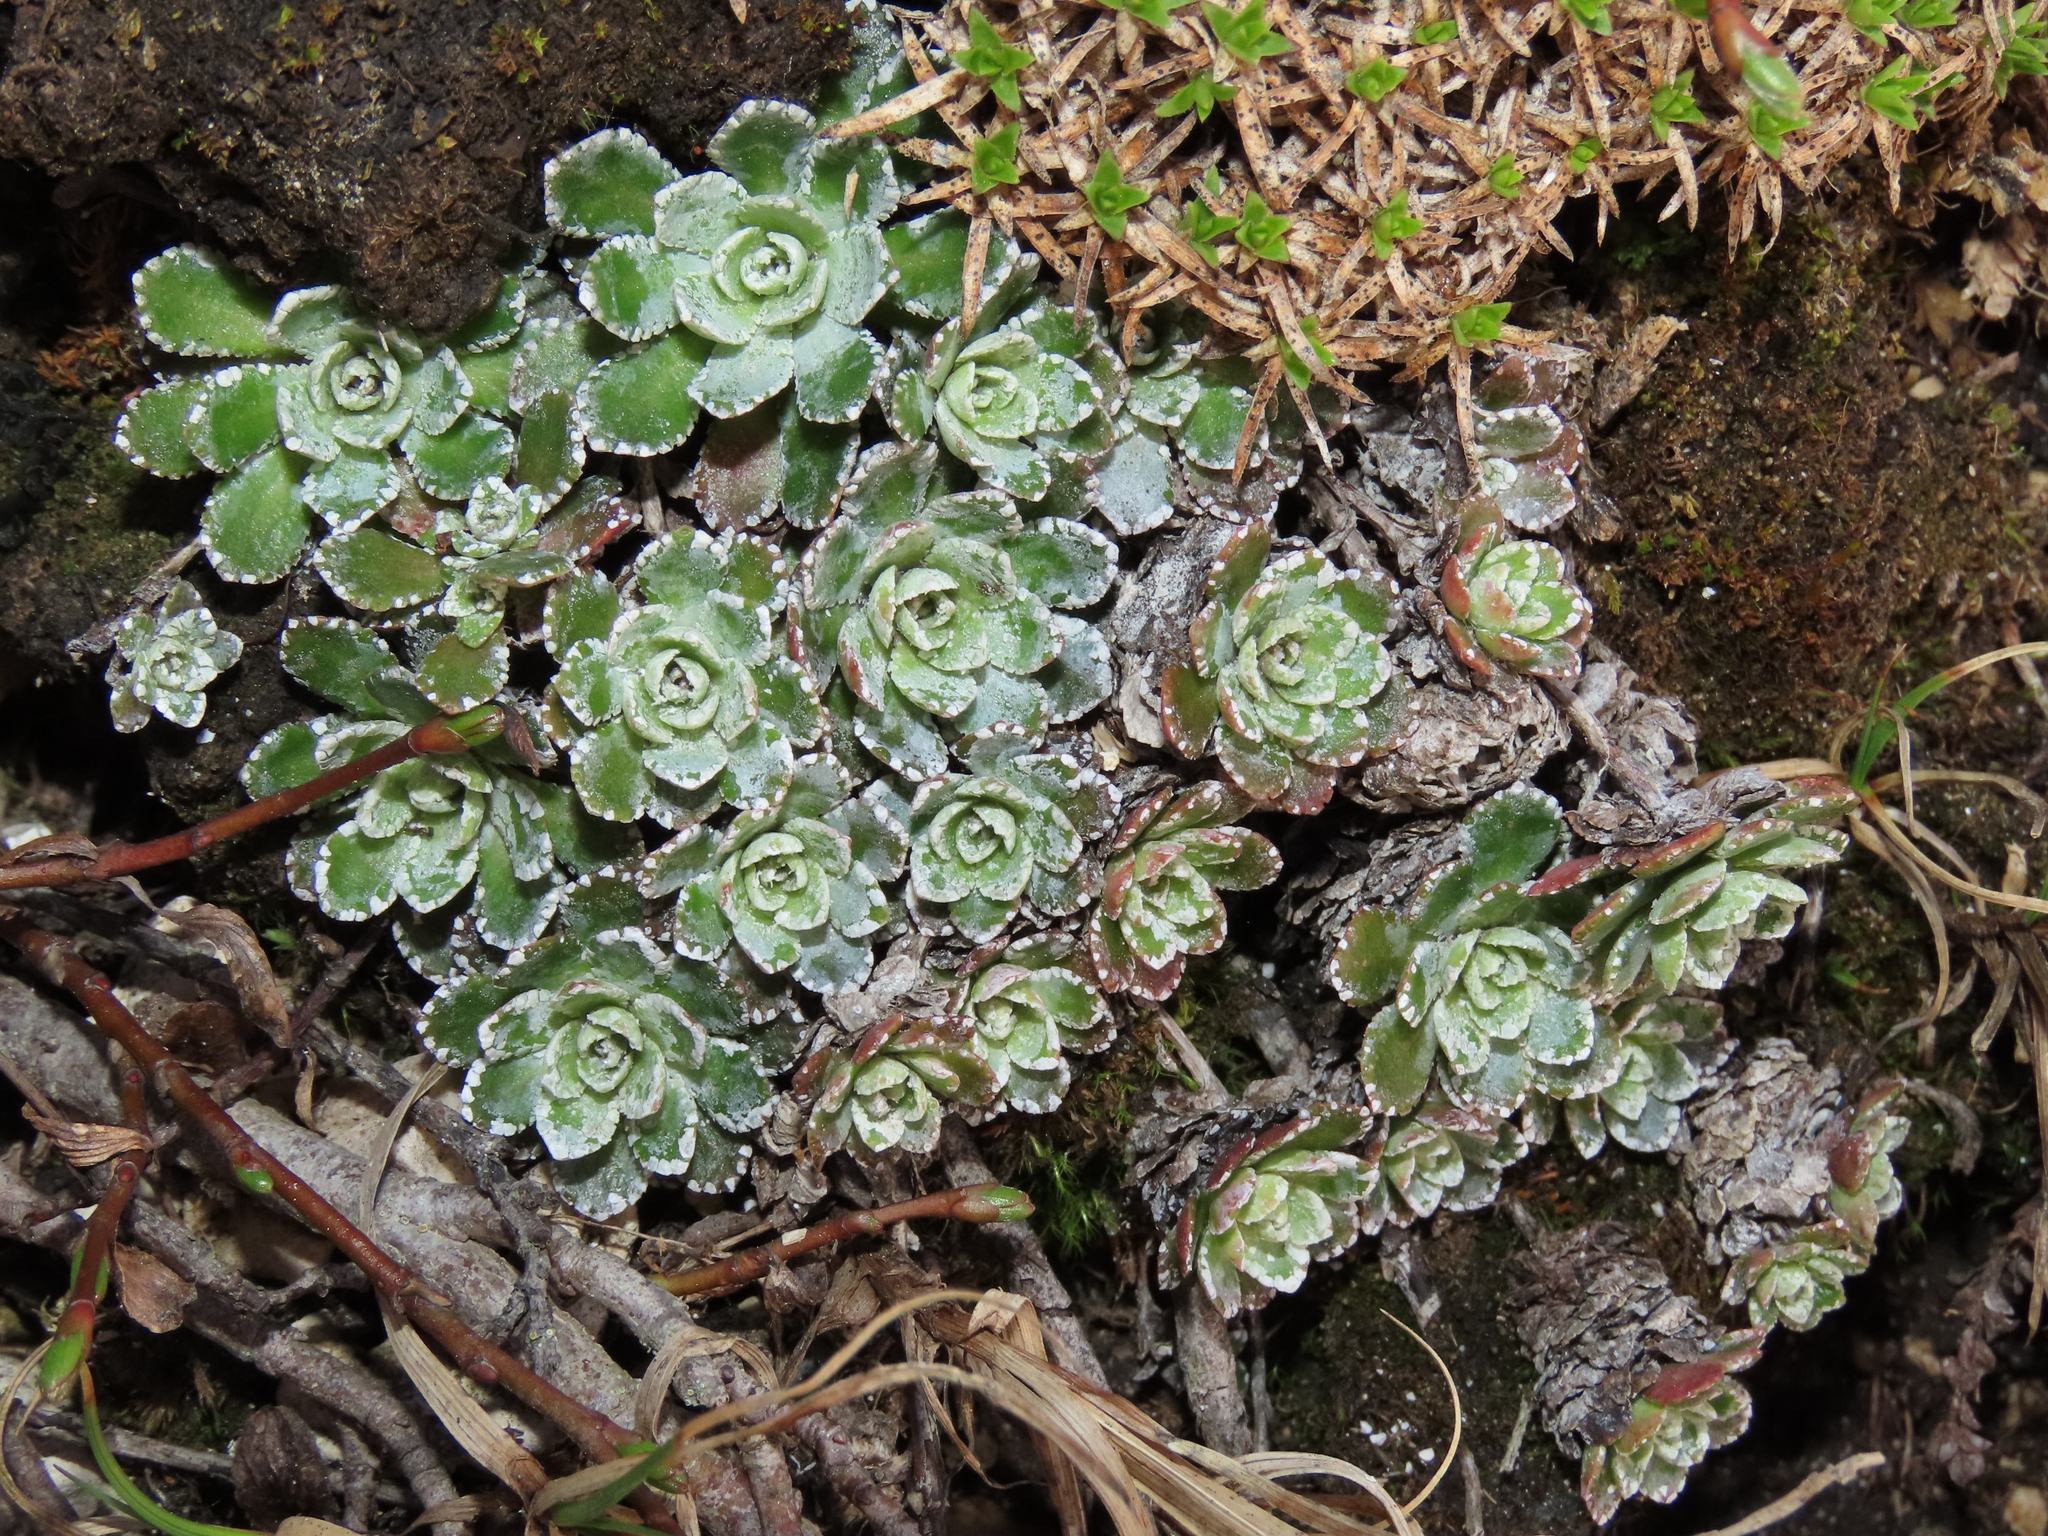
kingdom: Plantae
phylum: Tracheophyta
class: Magnoliopsida
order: Saxifragales
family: Saxifragaceae
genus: Saxifraga
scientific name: Saxifraga paniculata
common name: Livelong saxifrage
